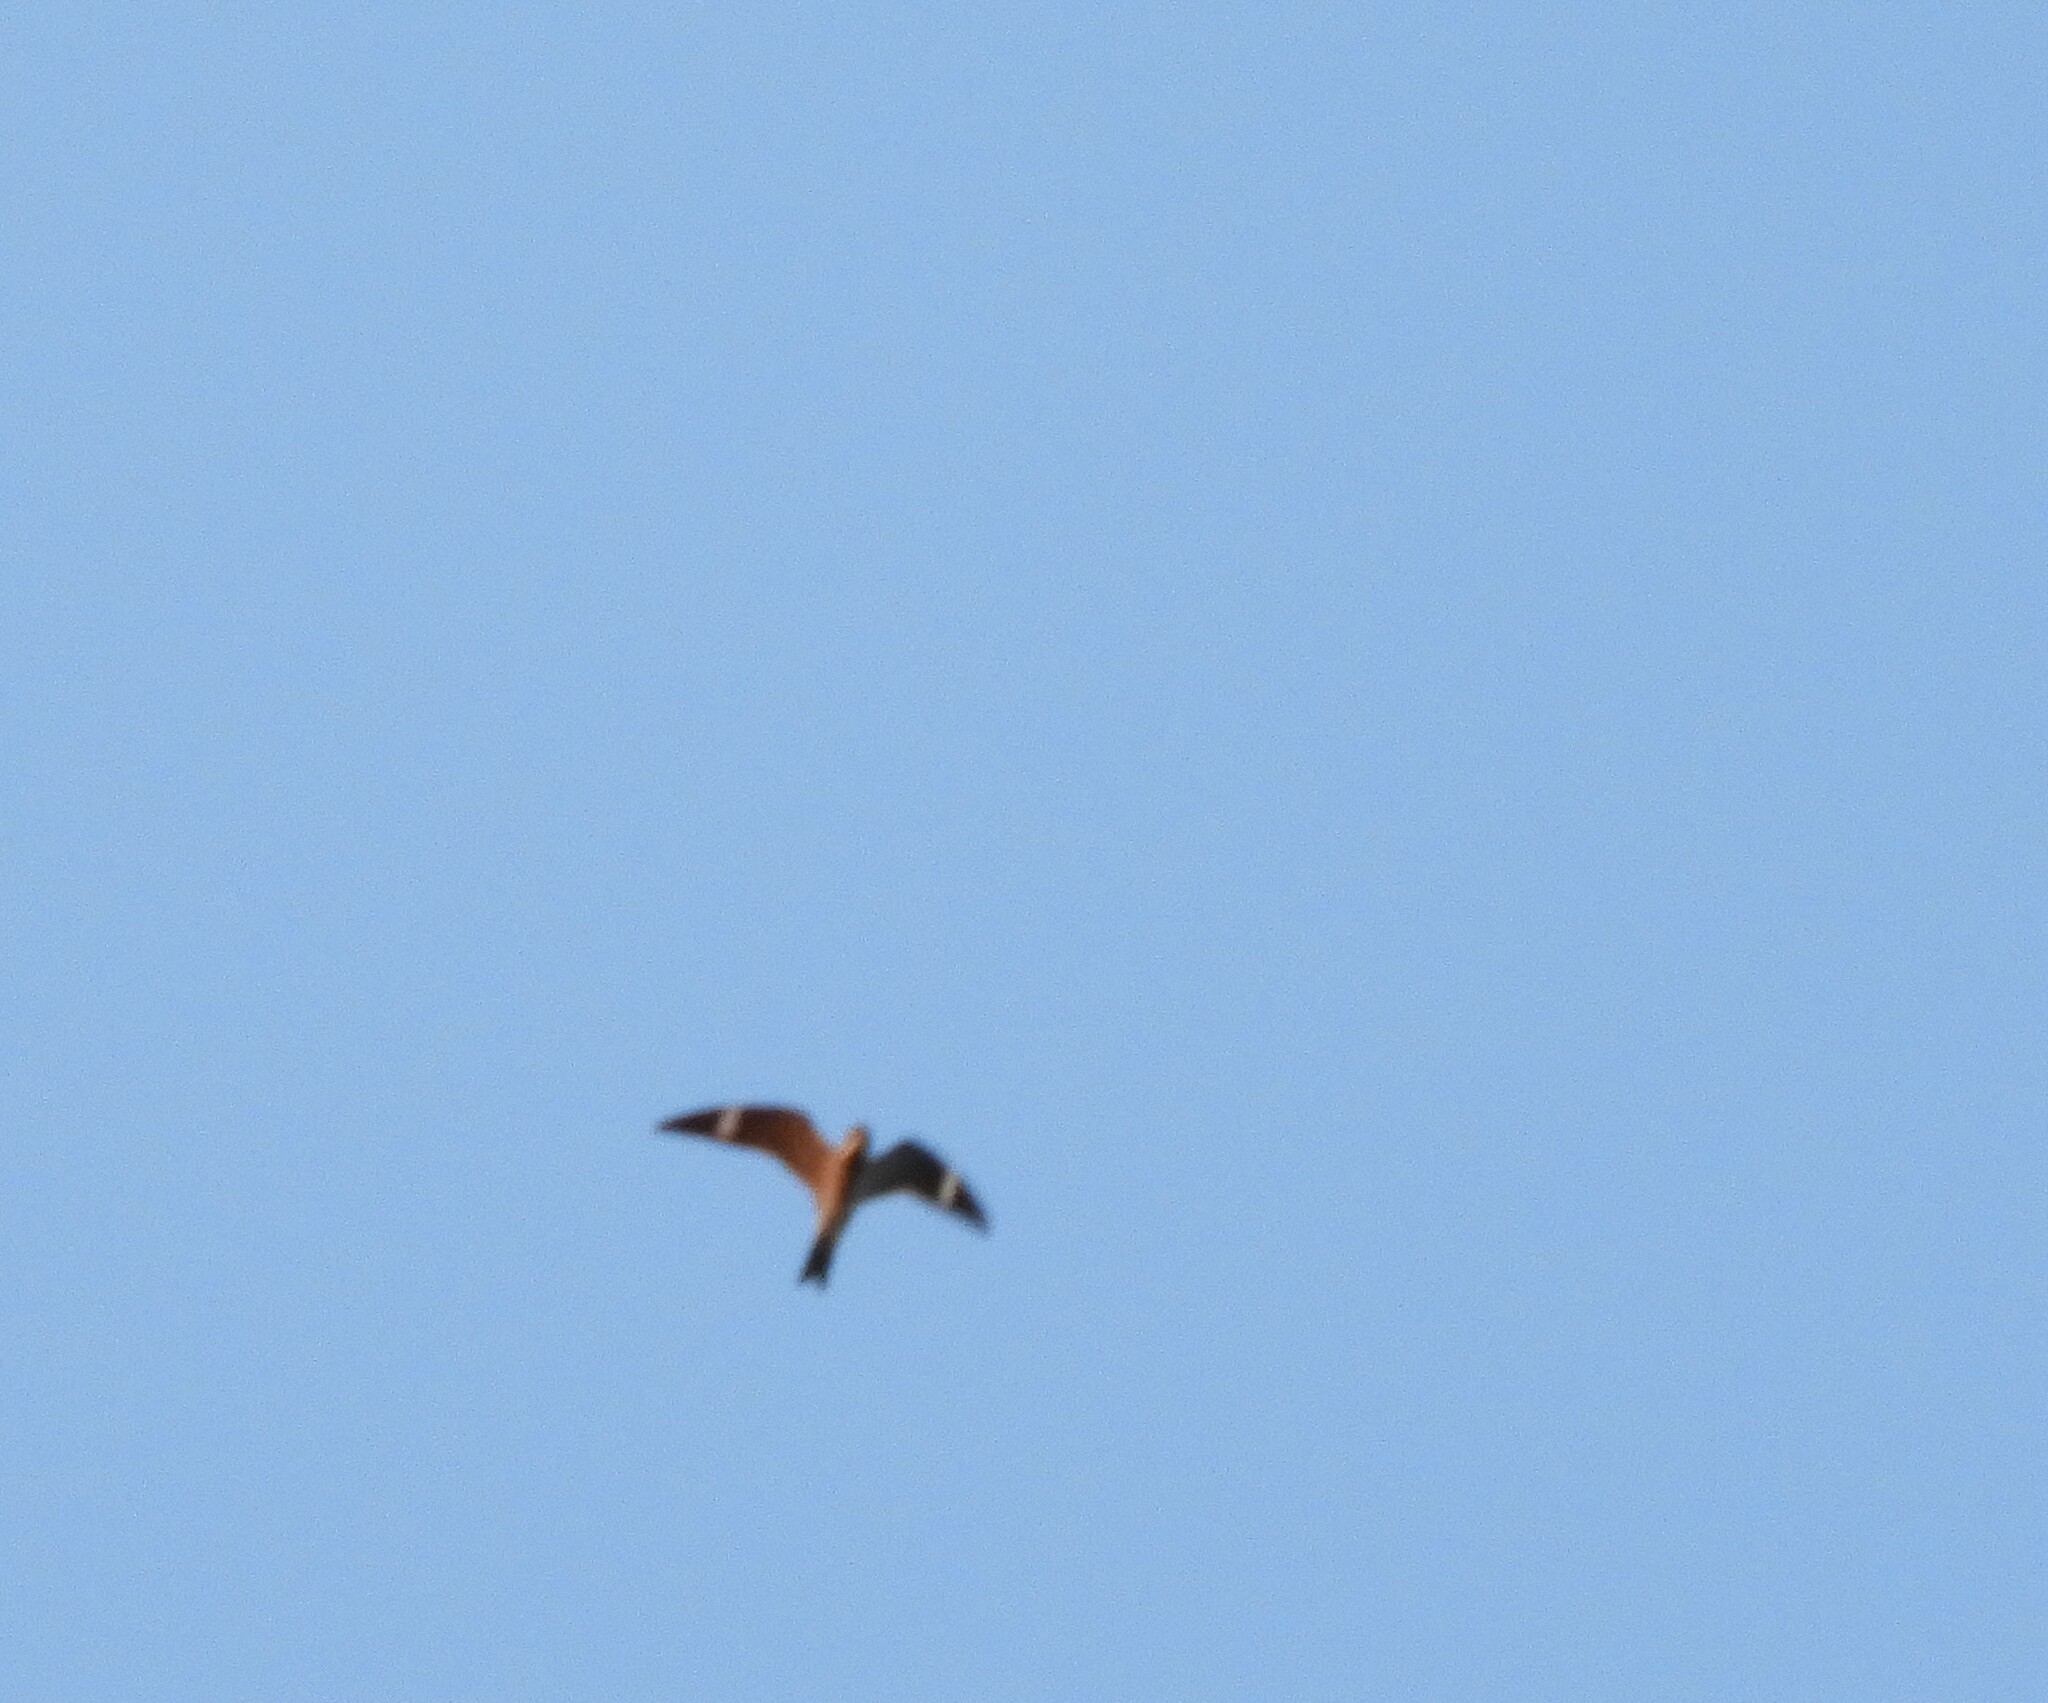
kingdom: Animalia
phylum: Chordata
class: Aves
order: Caprimulgiformes
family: Caprimulgidae
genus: Chordeiles
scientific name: Chordeiles minor
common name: Common nighthawk
